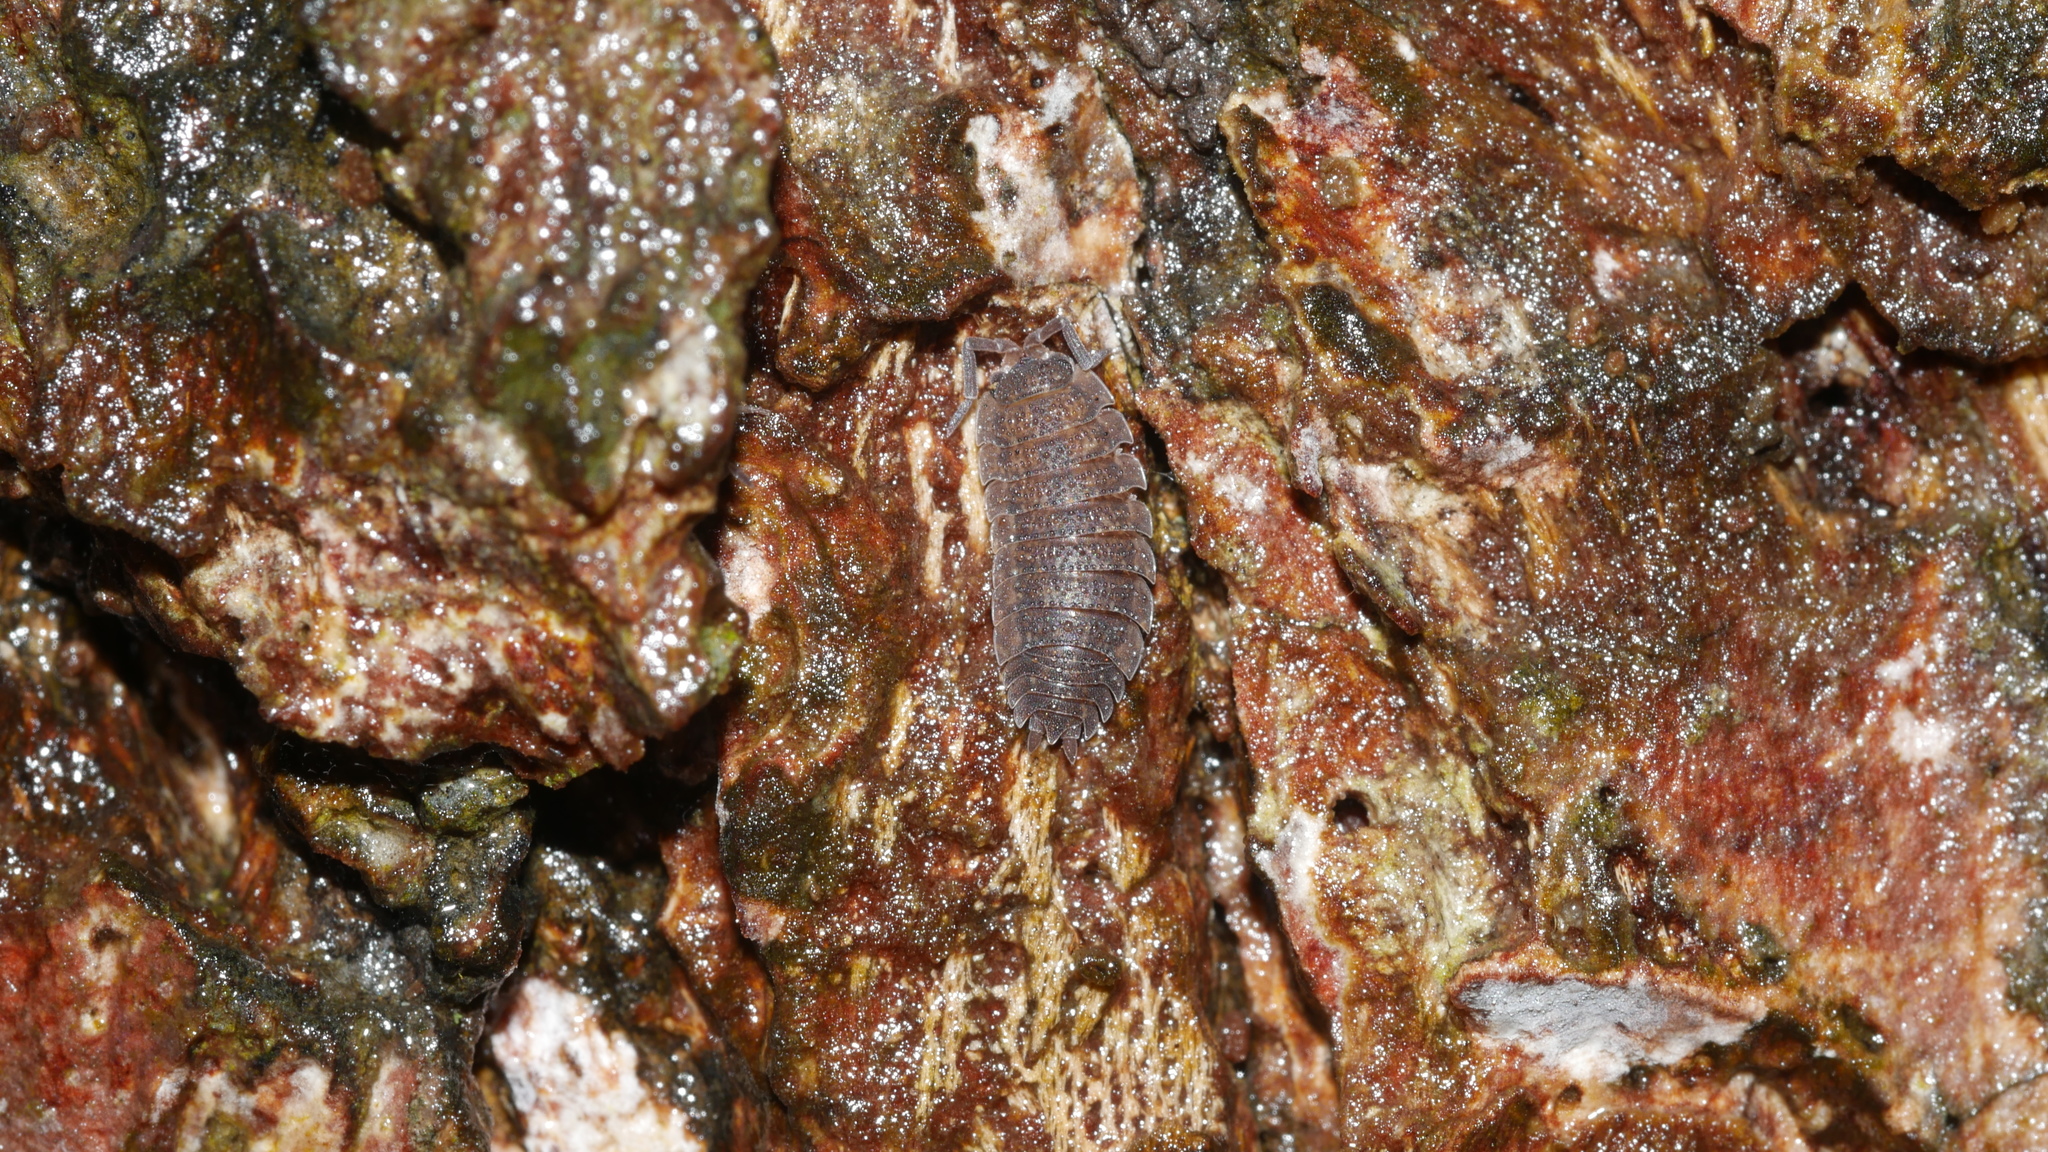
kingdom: Animalia
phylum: Arthropoda
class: Malacostraca
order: Isopoda
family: Porcellionidae
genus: Porcellio
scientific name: Porcellio scaber
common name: Common rough woodlouse
